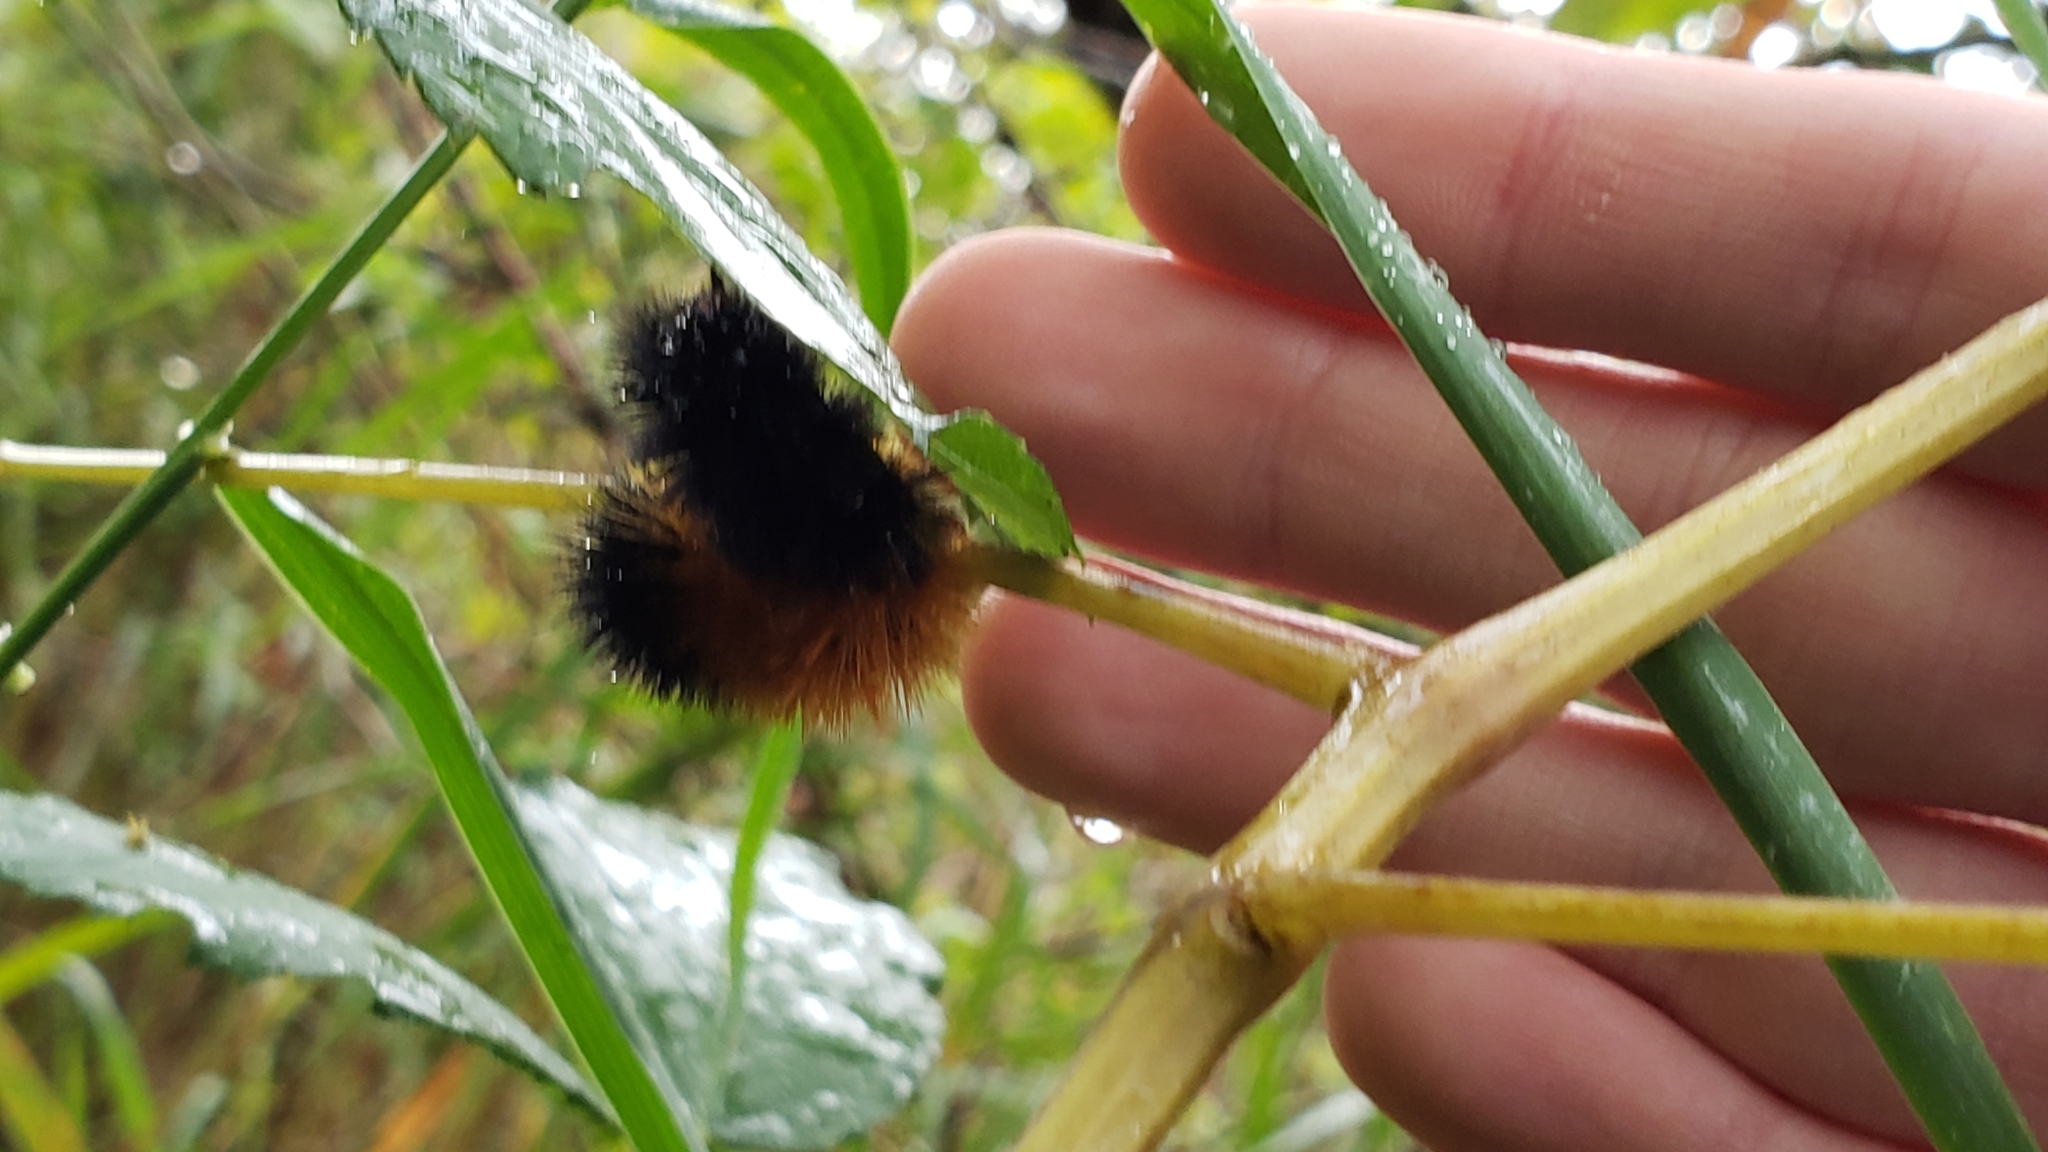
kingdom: Animalia
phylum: Arthropoda
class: Insecta
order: Lepidoptera
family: Erebidae
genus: Pyrrharctia
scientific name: Pyrrharctia isabella
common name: Isabella tiger moth
